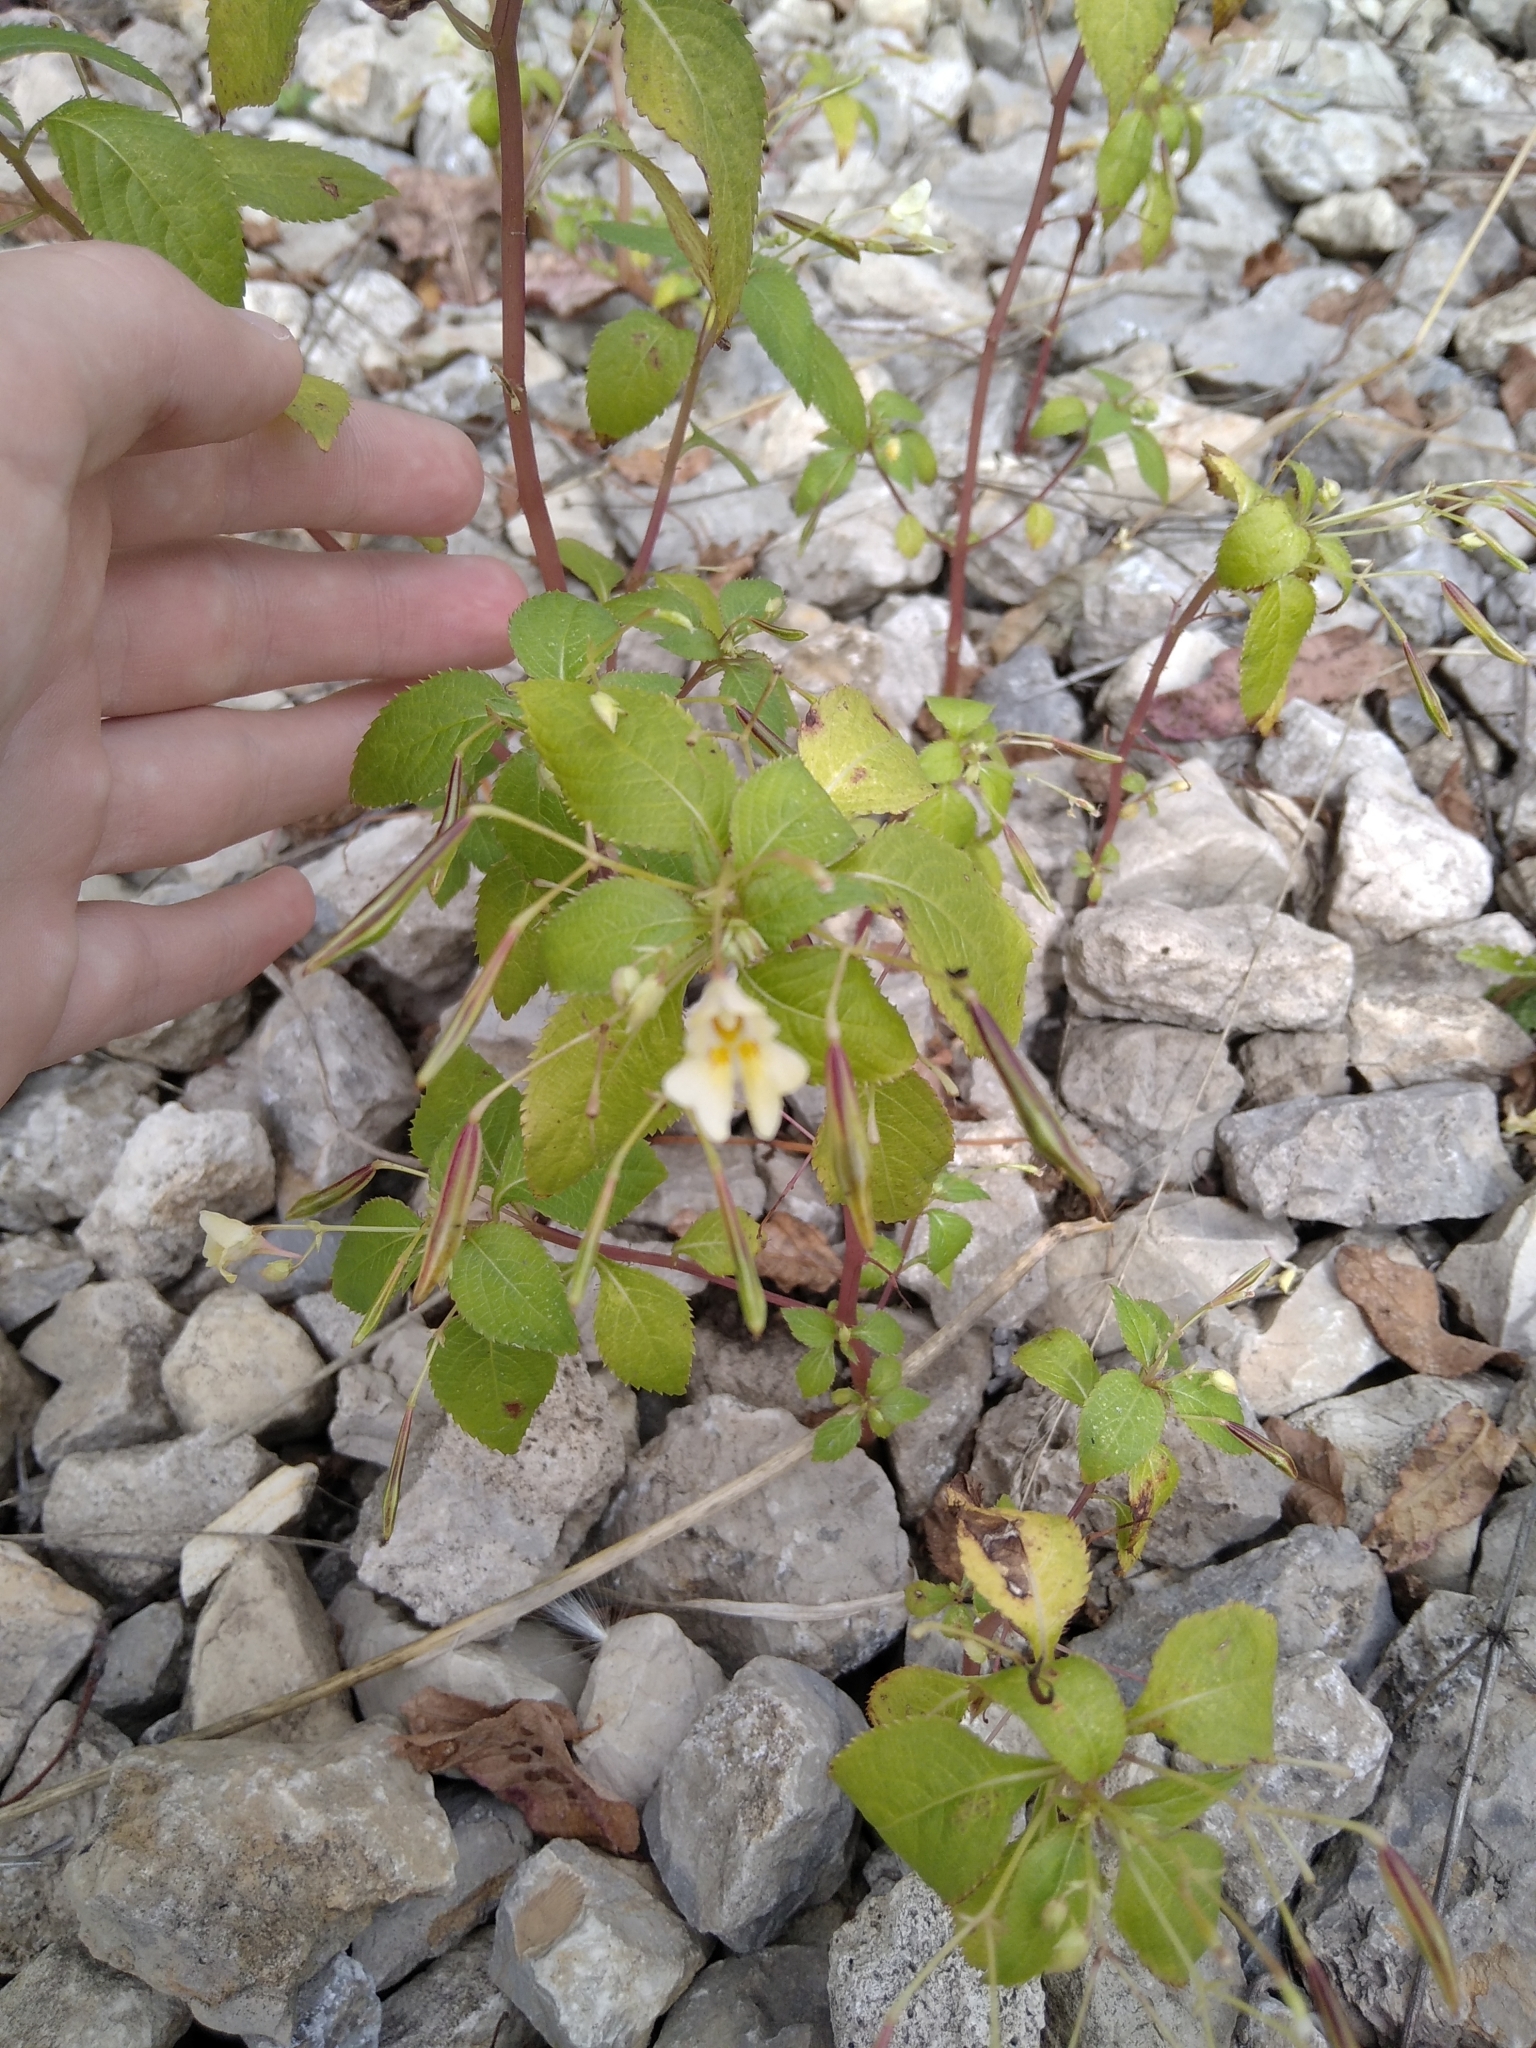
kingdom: Plantae
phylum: Tracheophyta
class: Magnoliopsida
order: Ericales
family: Balsaminaceae
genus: Impatiens
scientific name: Impatiens parviflora
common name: Small balsam
